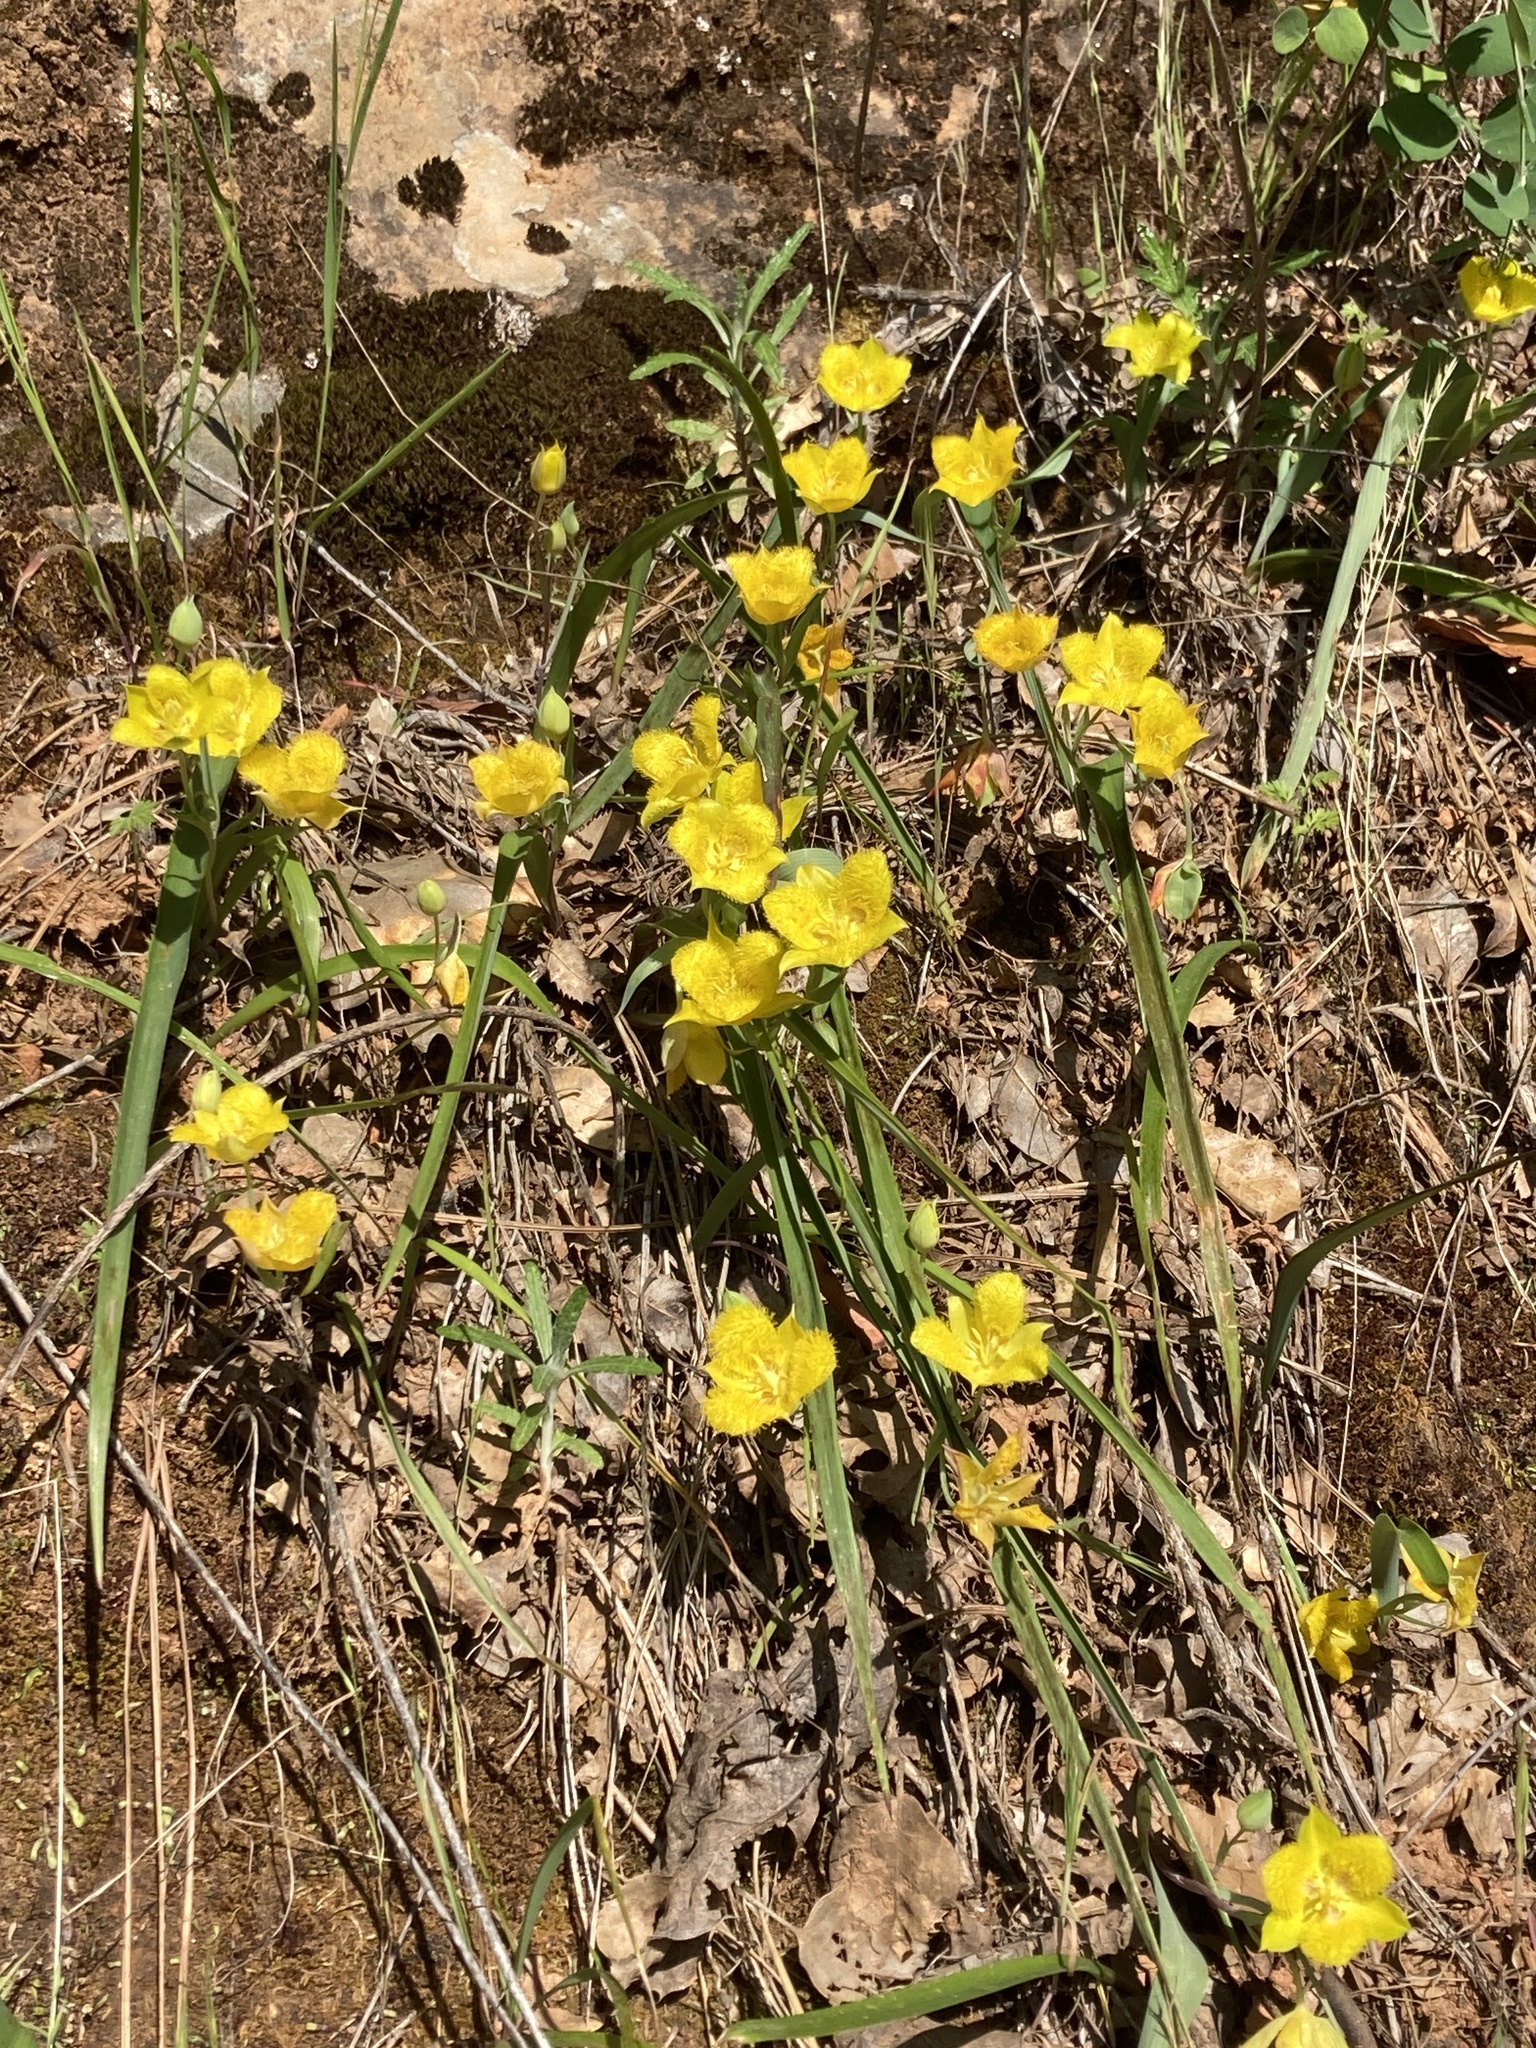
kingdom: Plantae
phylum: Tracheophyta
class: Liliopsida
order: Liliales
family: Liliaceae
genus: Calochortus
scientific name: Calochortus monophyllus
